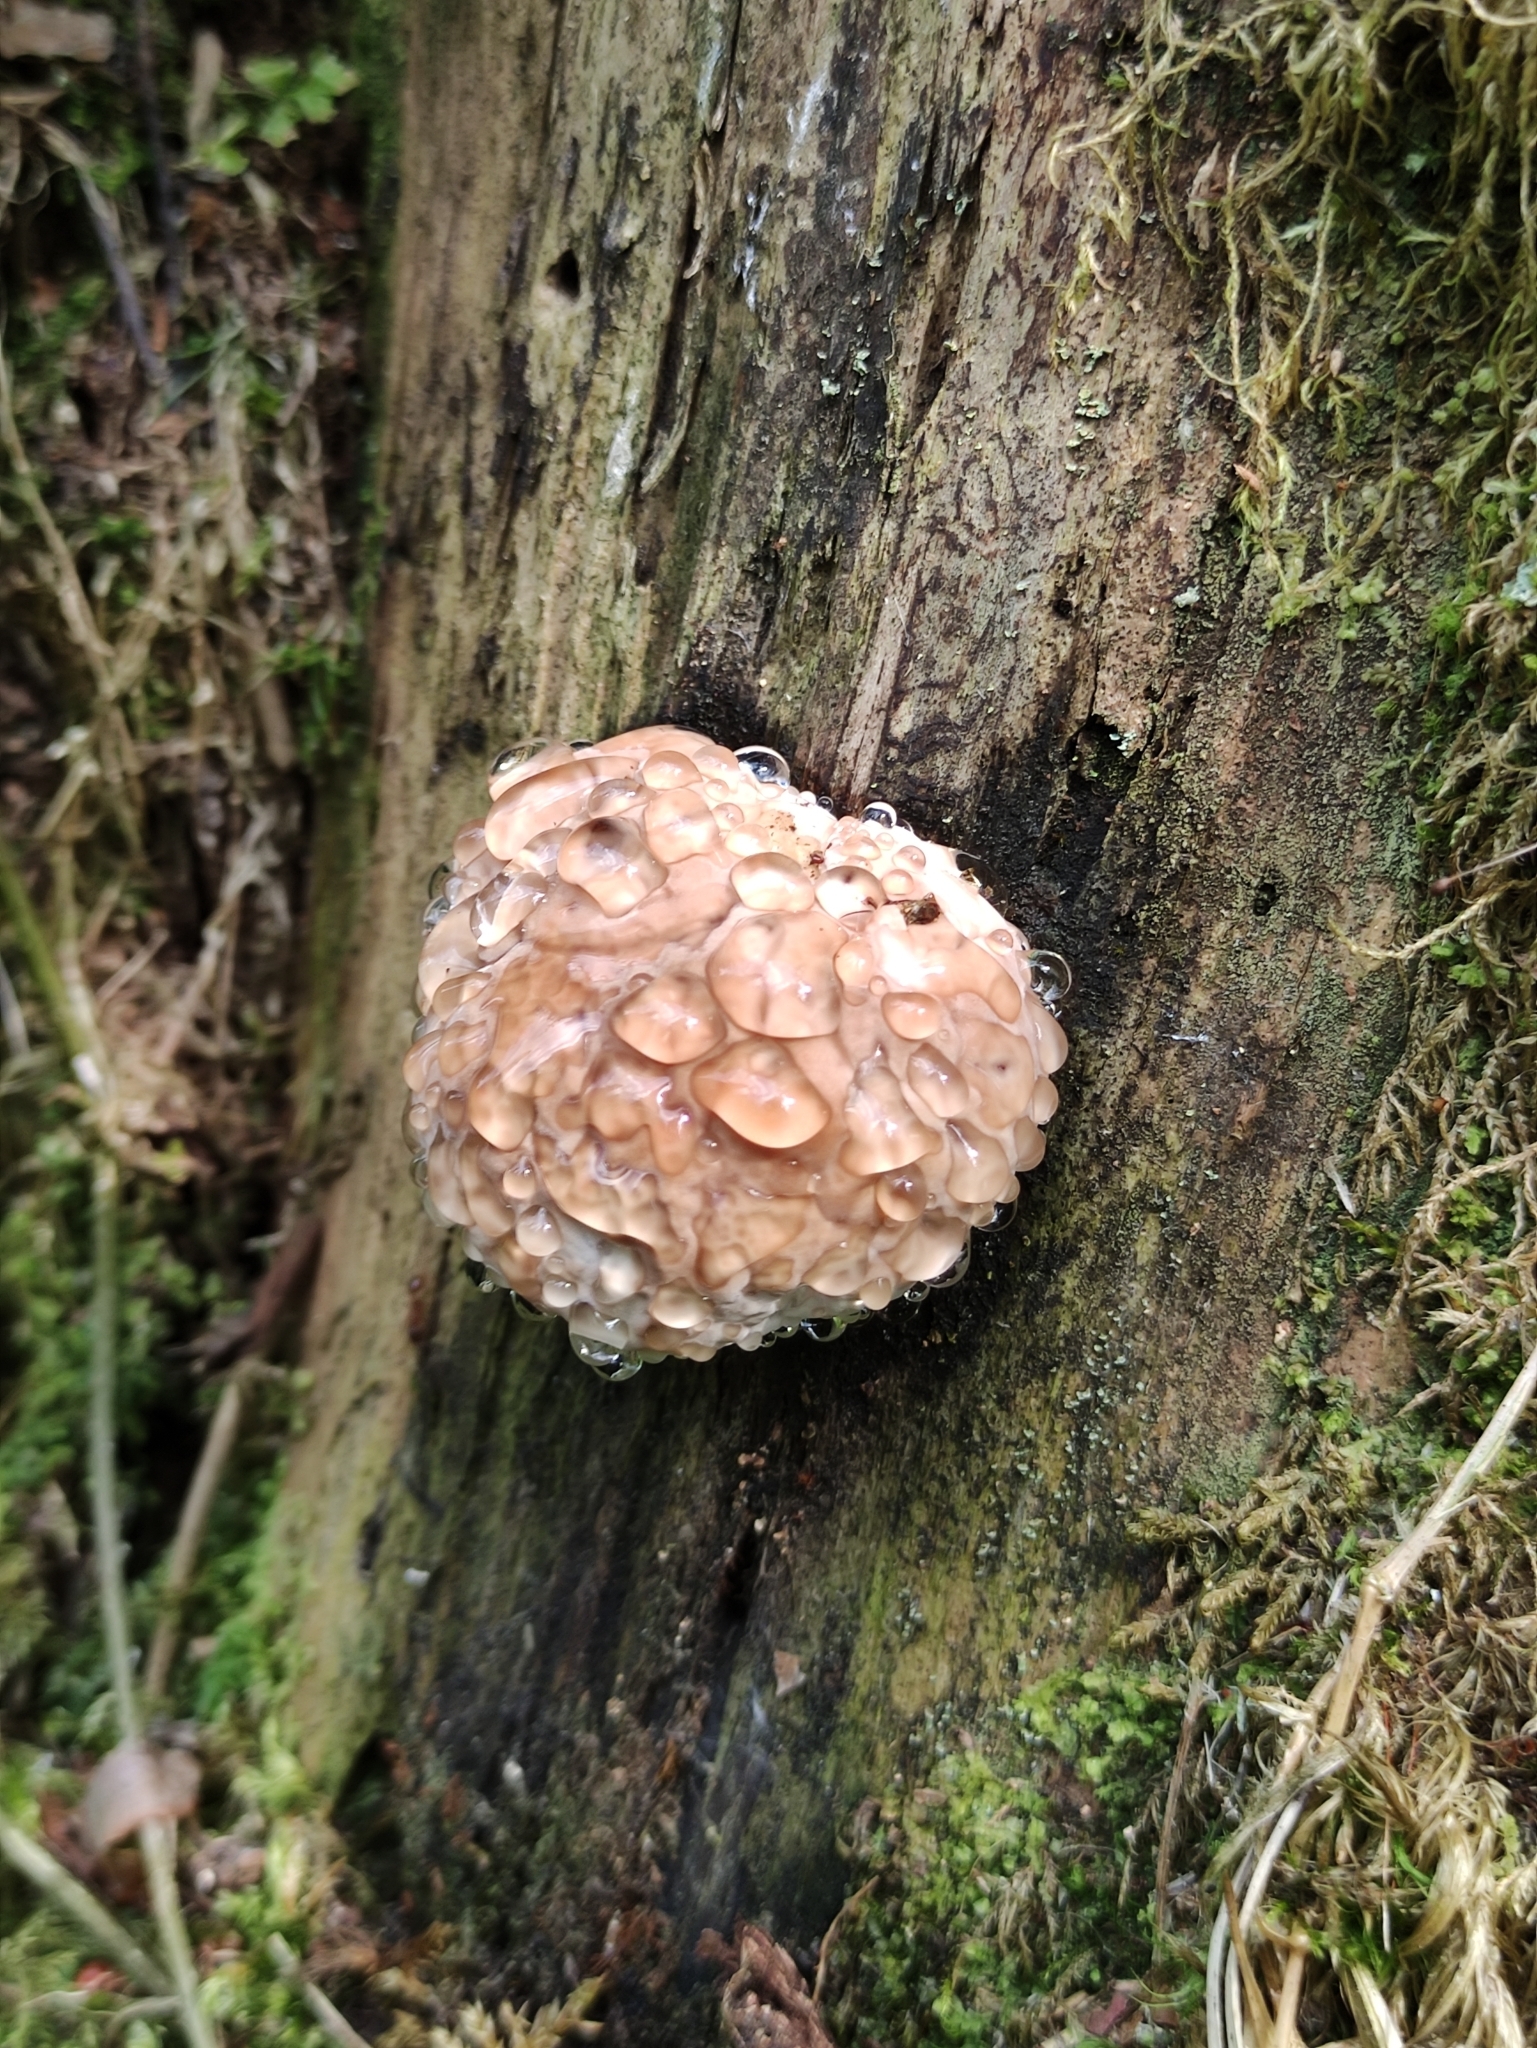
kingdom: Fungi
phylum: Basidiomycota
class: Agaricomycetes
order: Polyporales
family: Fomitopsidaceae
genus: Fomitopsis
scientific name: Fomitopsis pinicola
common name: Red-belted bracket
